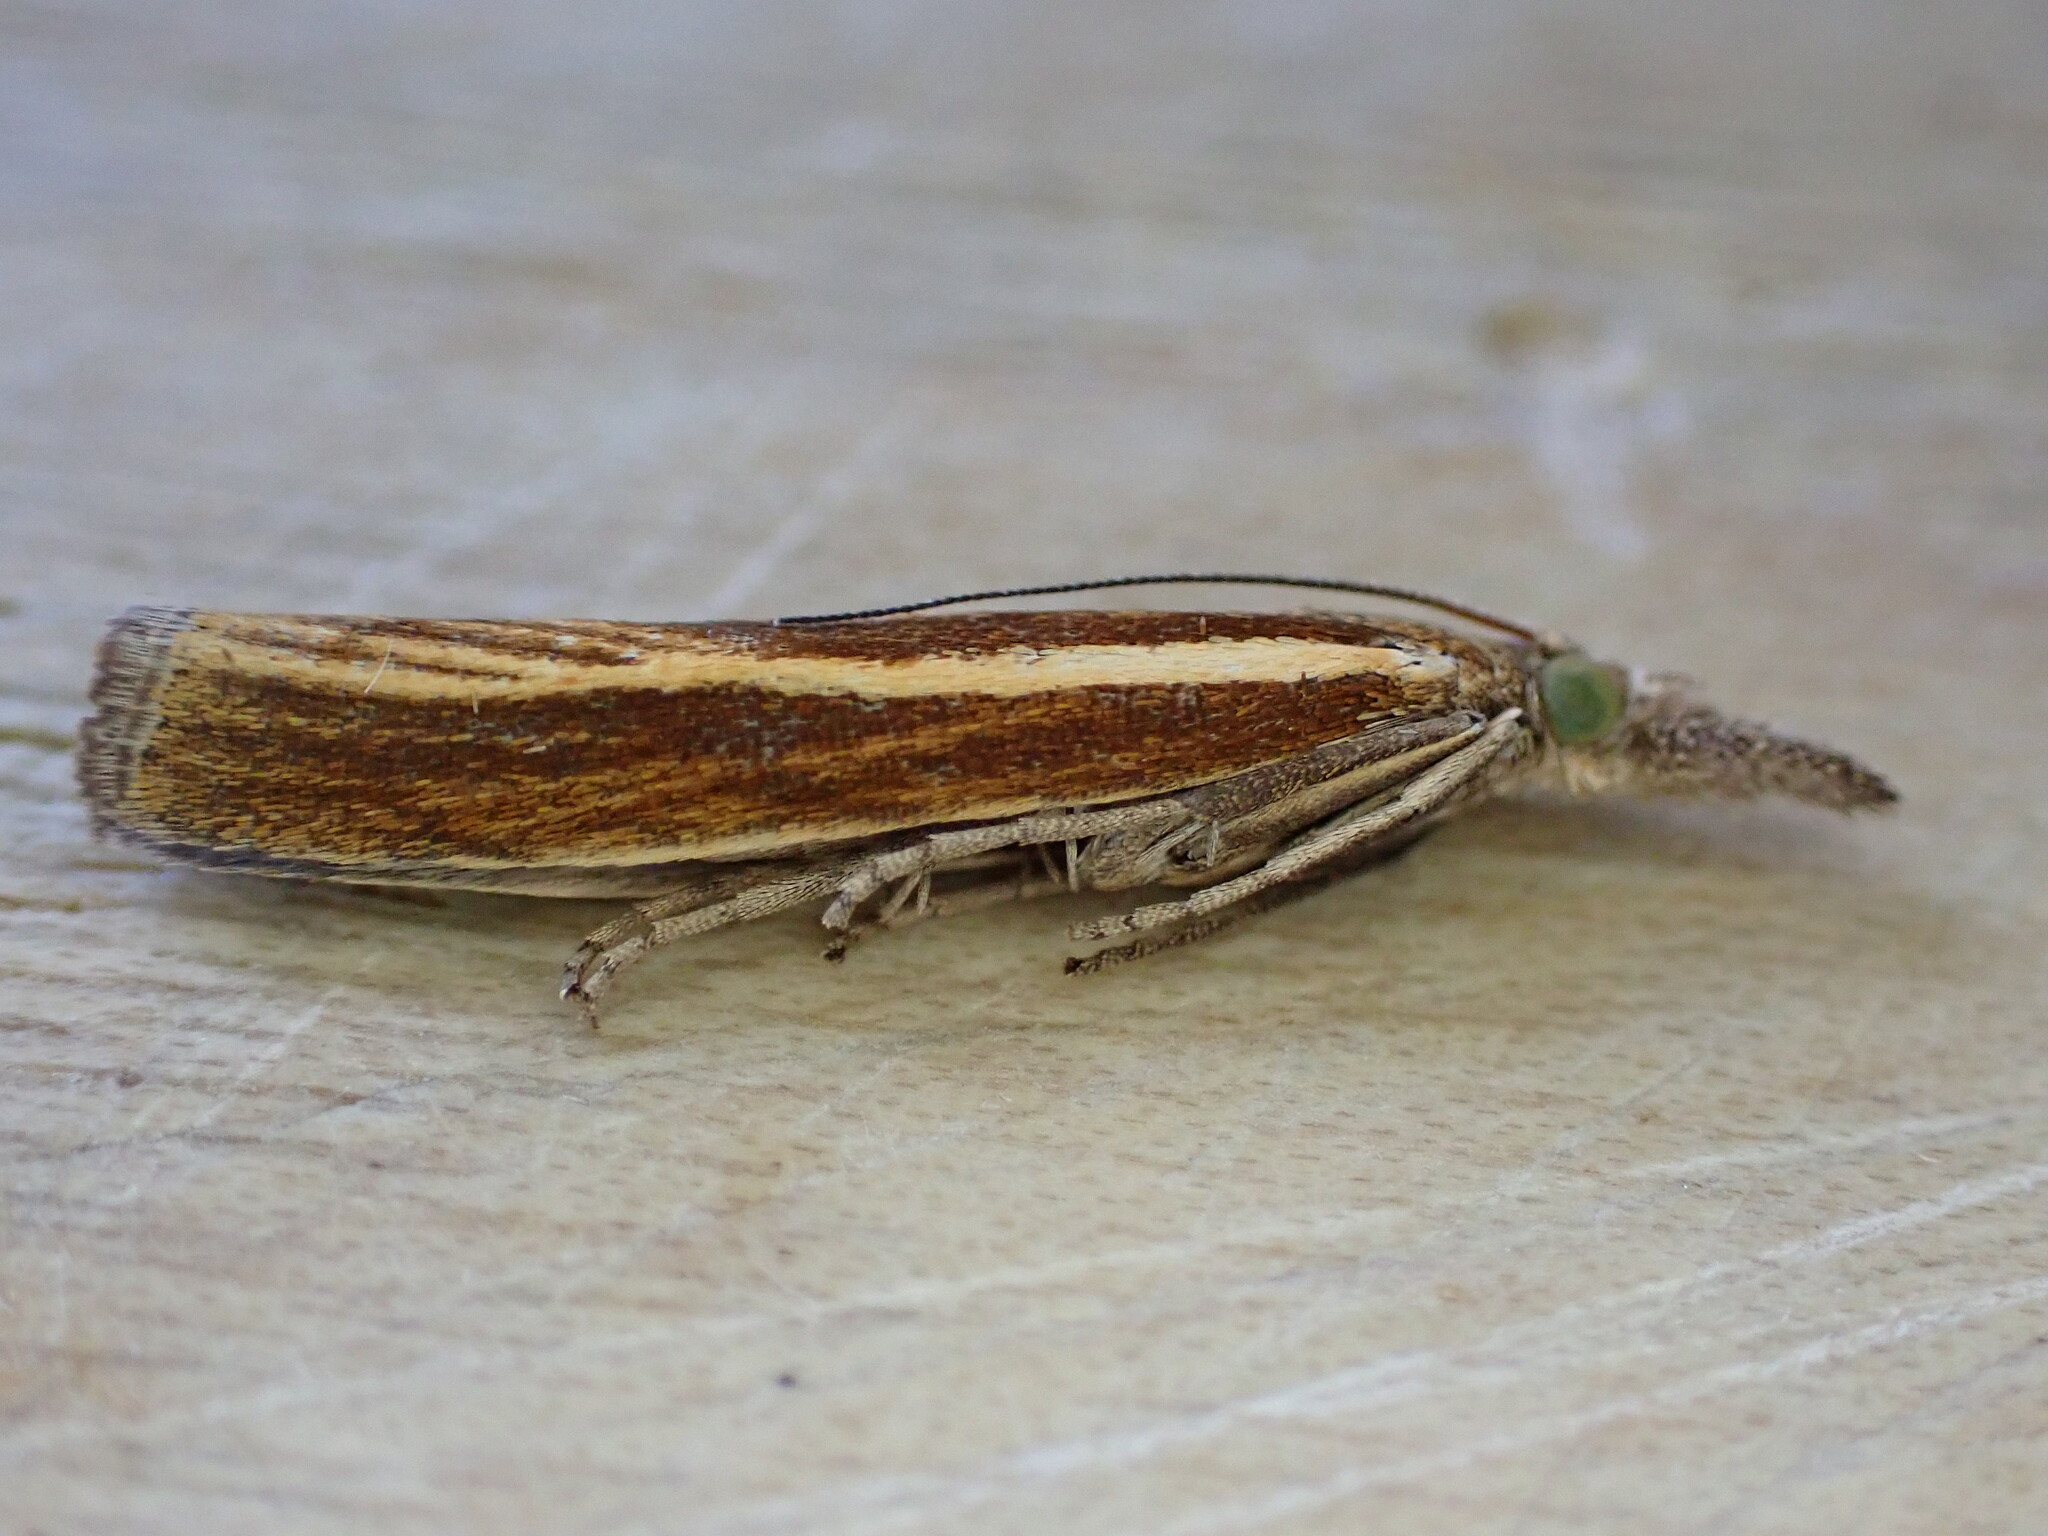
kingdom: Animalia
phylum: Arthropoda
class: Insecta
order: Lepidoptera
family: Crambidae
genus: Agriphila
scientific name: Agriphila tristellus
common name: Common grass-veneer
